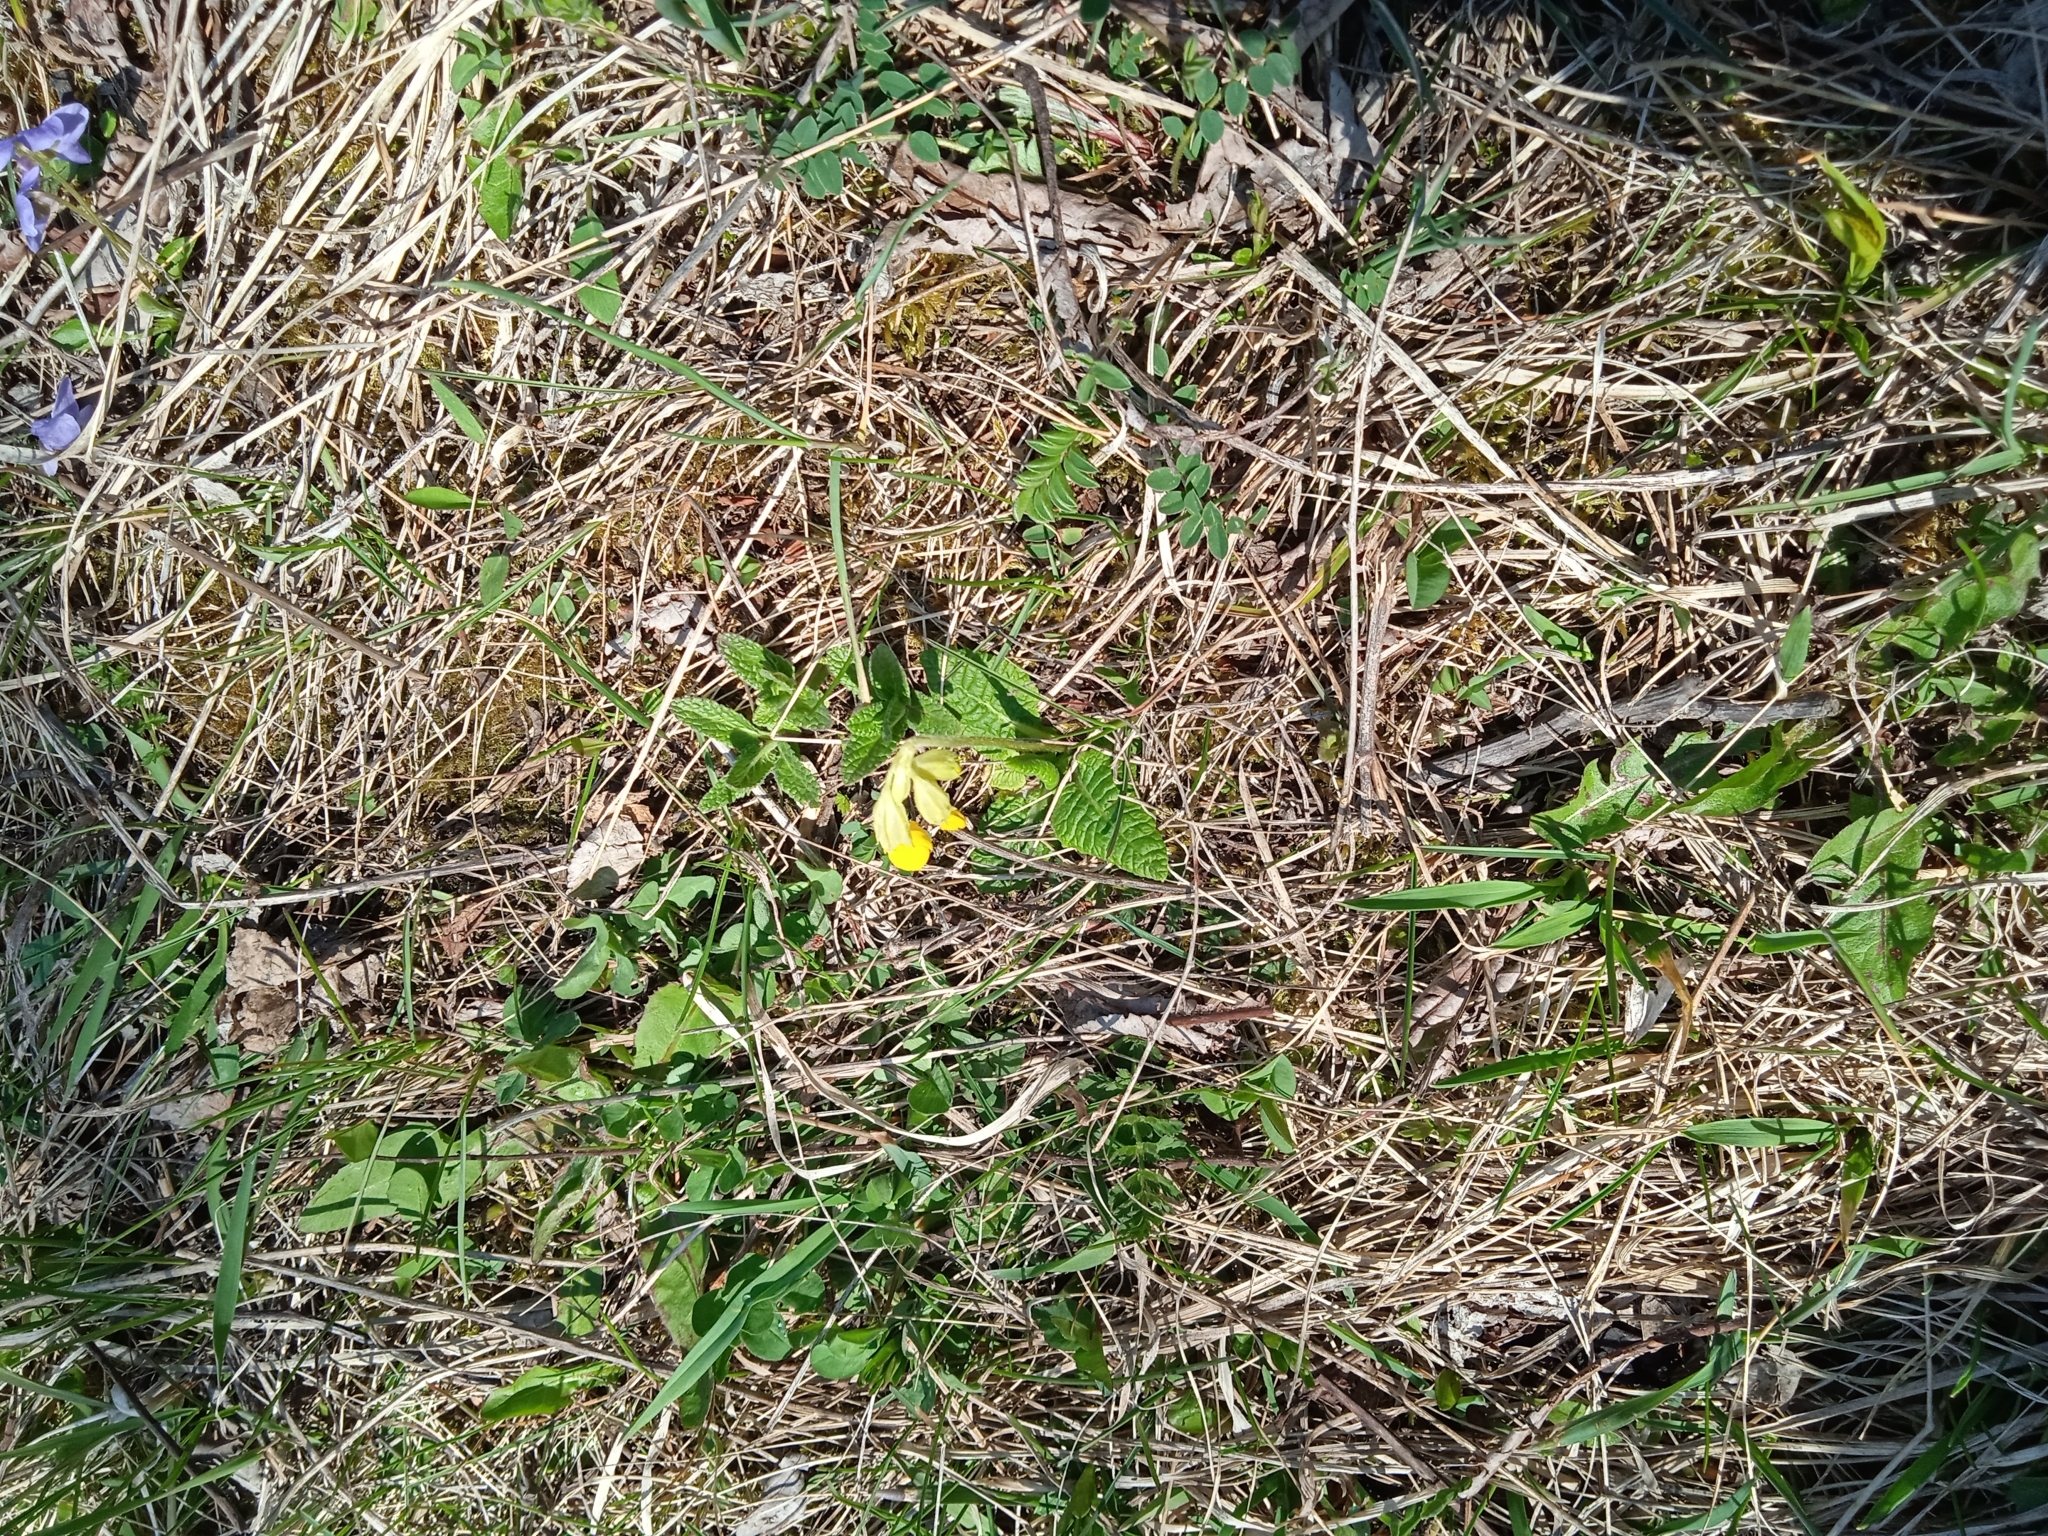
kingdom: Plantae
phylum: Tracheophyta
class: Magnoliopsida
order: Ericales
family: Primulaceae
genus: Primula
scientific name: Primula veris
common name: Cowslip
